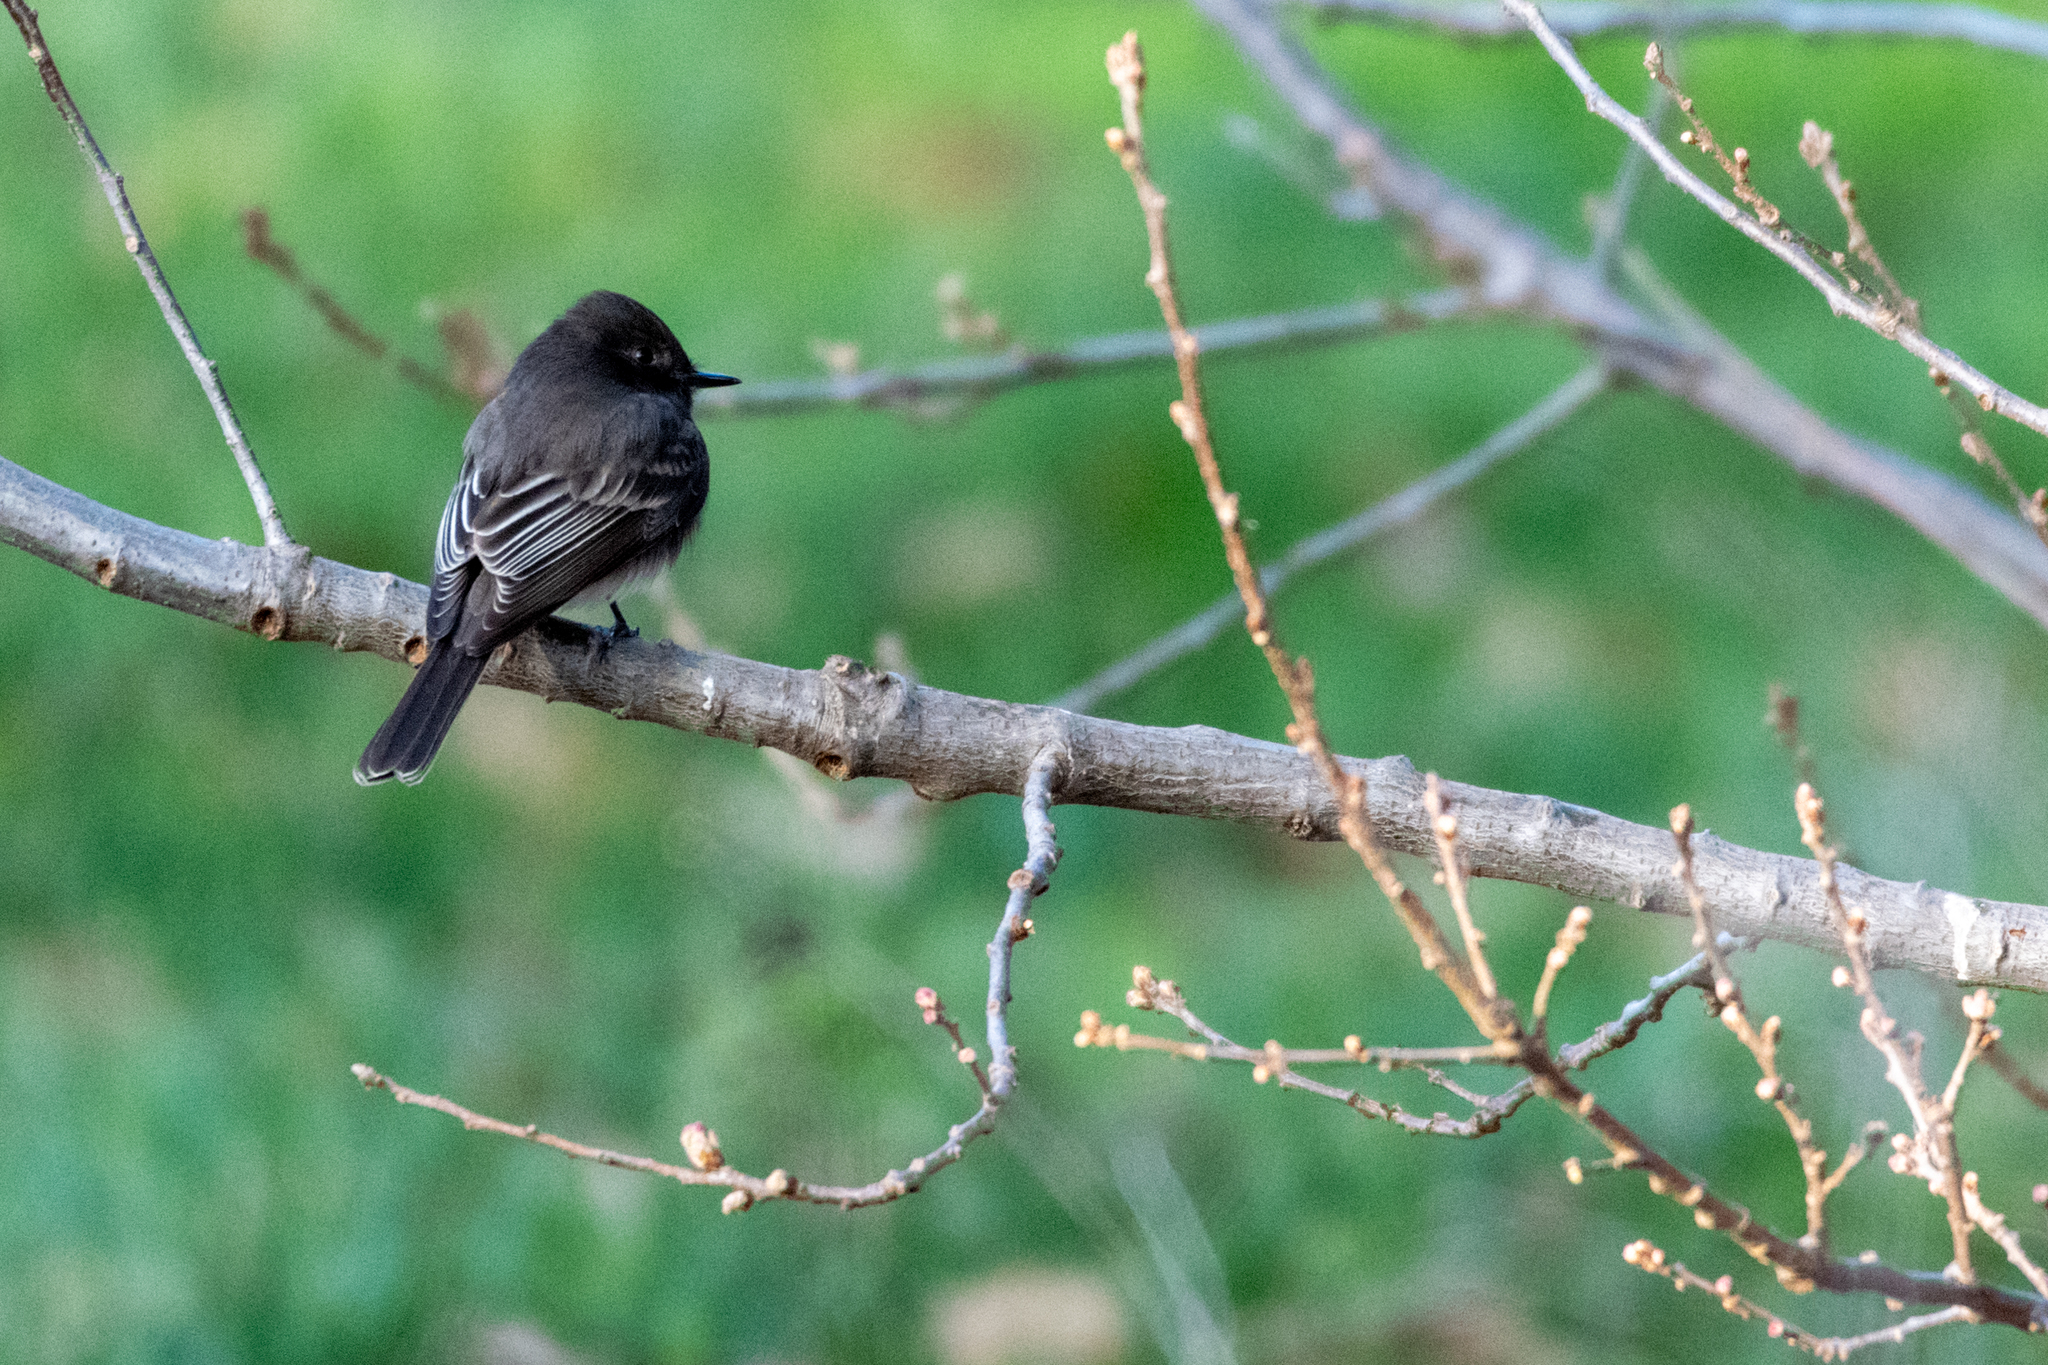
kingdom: Animalia
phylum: Chordata
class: Aves
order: Passeriformes
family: Tyrannidae
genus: Sayornis
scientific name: Sayornis nigricans
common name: Black phoebe
